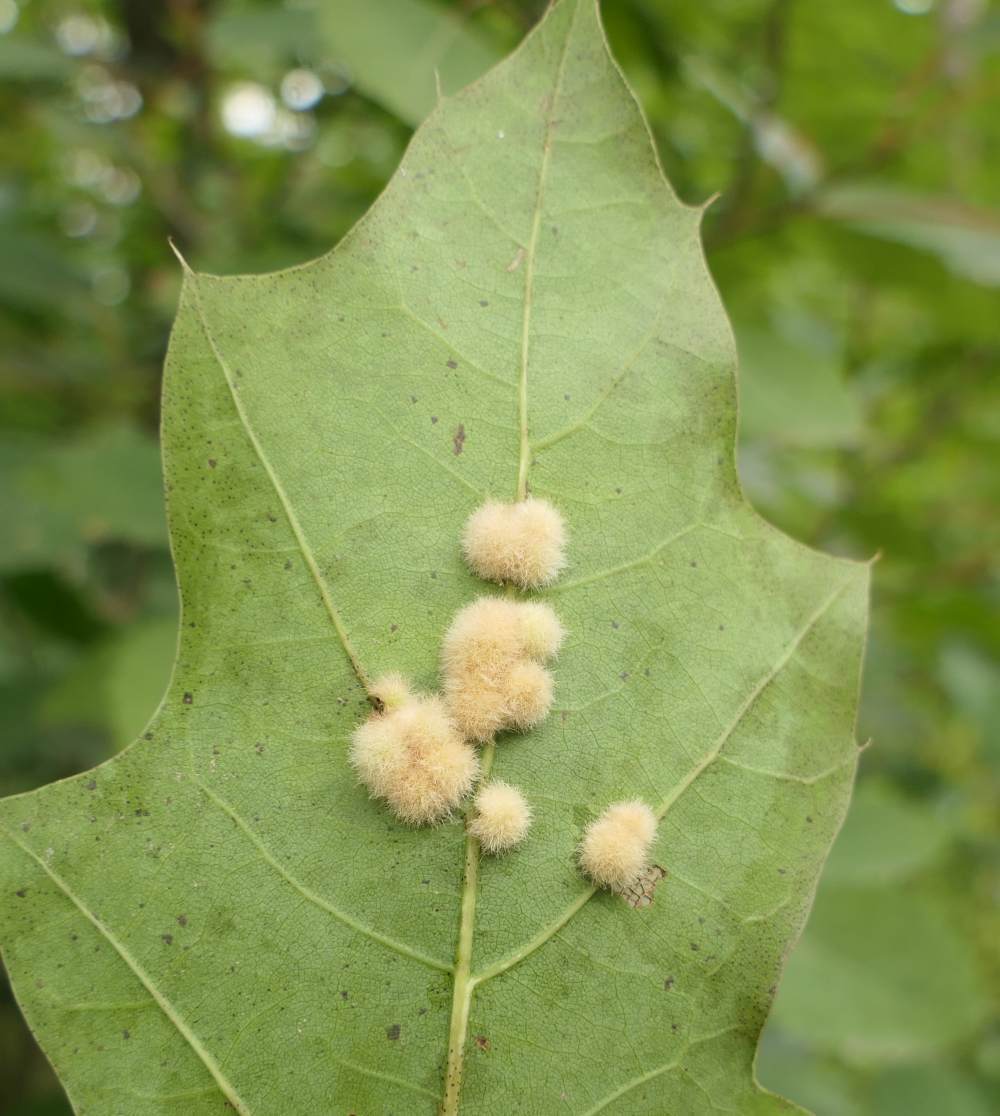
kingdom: Animalia
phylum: Arthropoda
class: Insecta
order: Hymenoptera
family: Cynipidae
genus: Callirhytis
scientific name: Callirhytis
